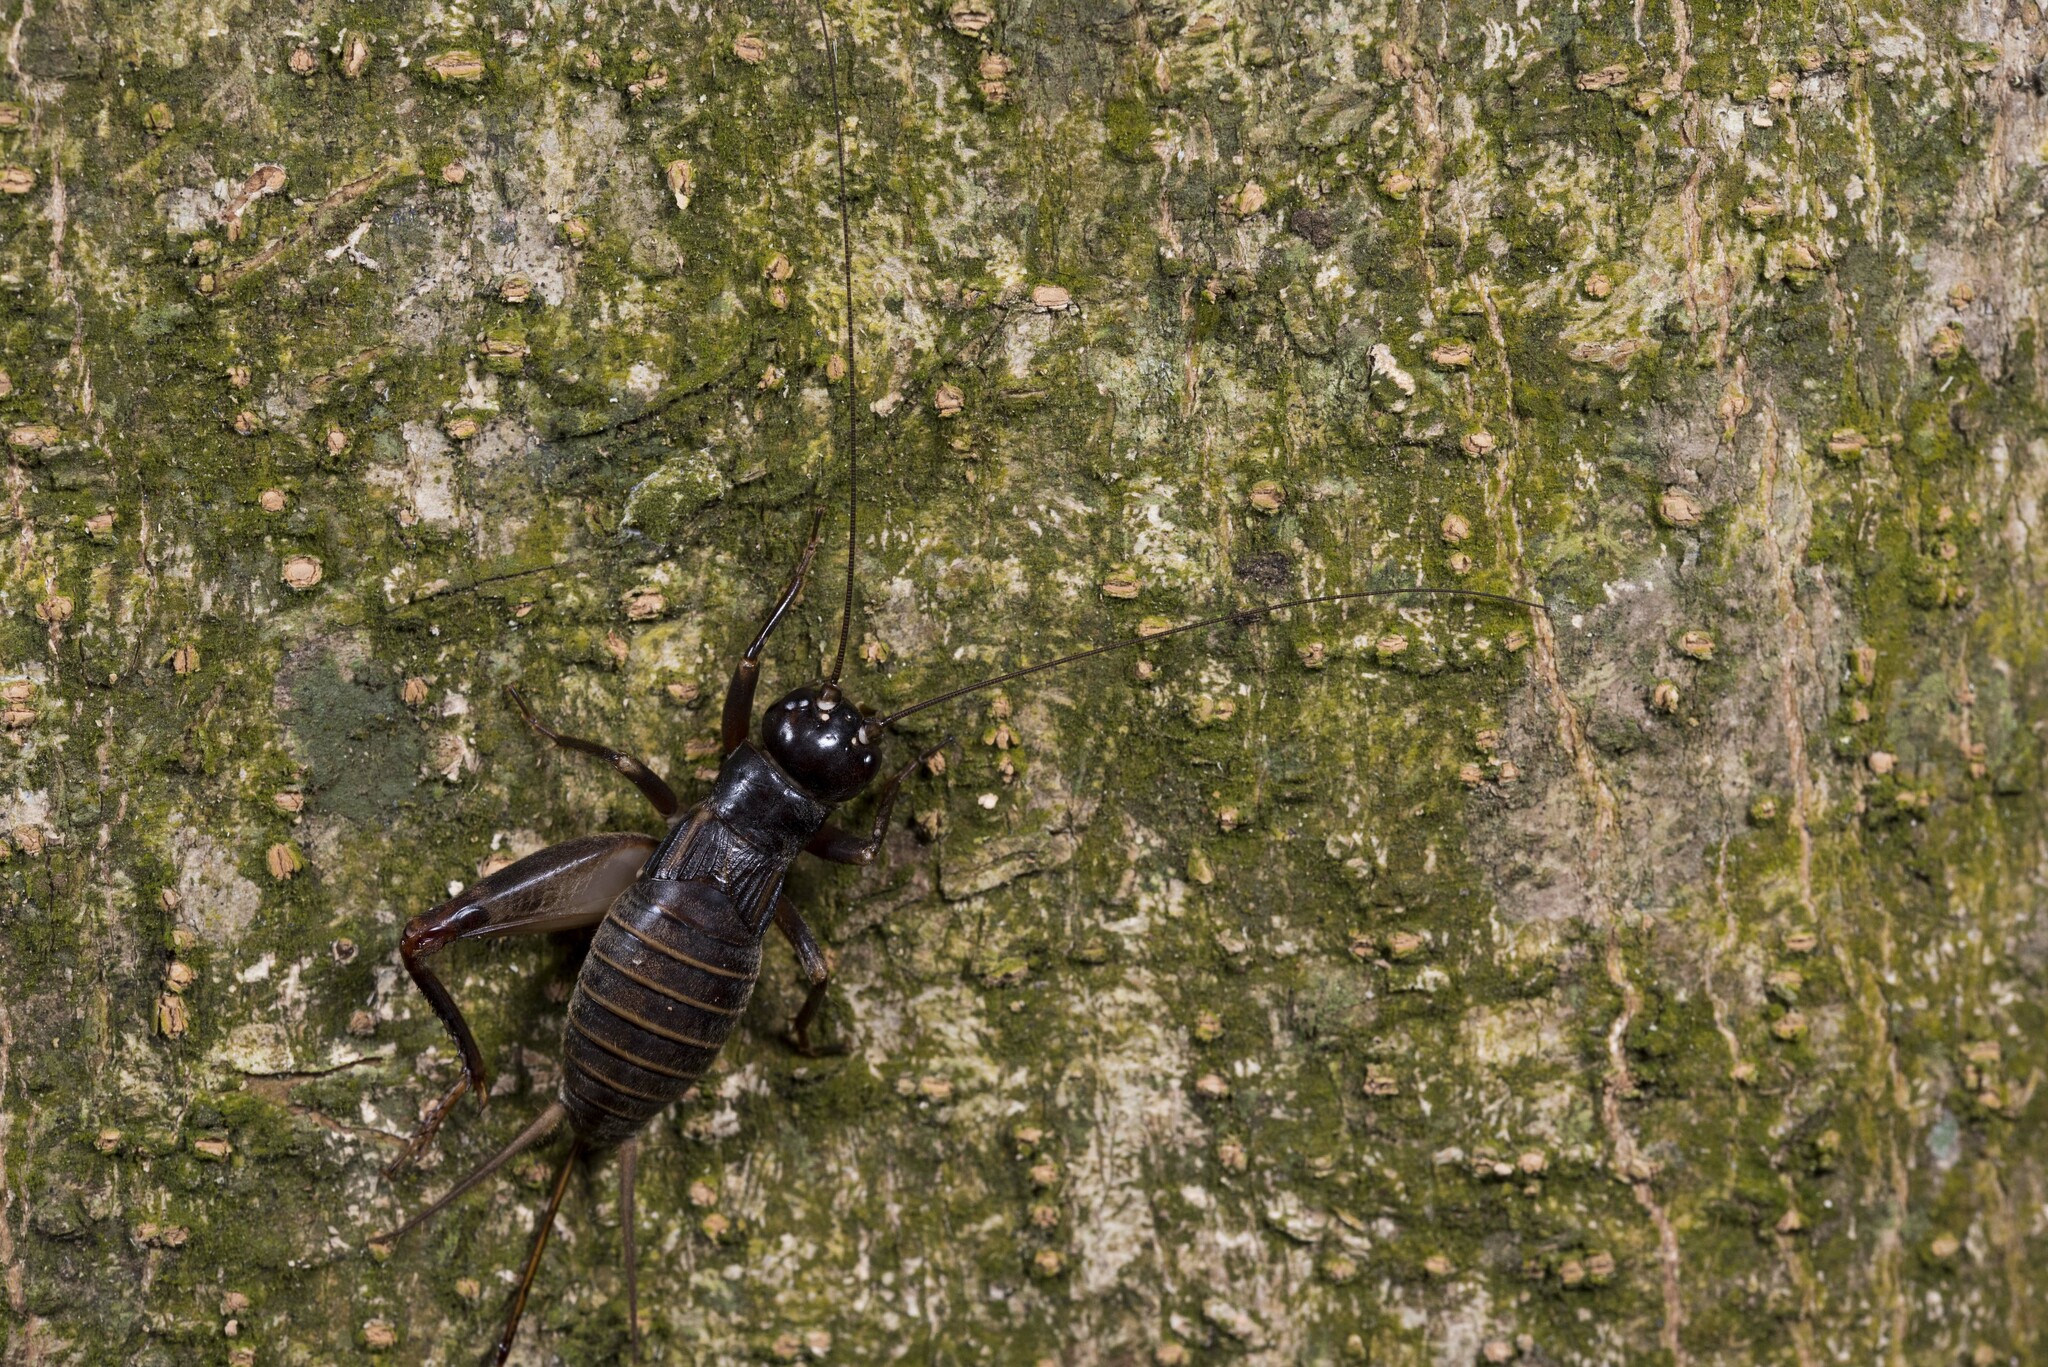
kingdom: Animalia
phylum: Arthropoda
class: Insecta
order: Orthoptera
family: Gryllidae
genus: Duolandrevus
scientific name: Duolandrevus coulonianus
